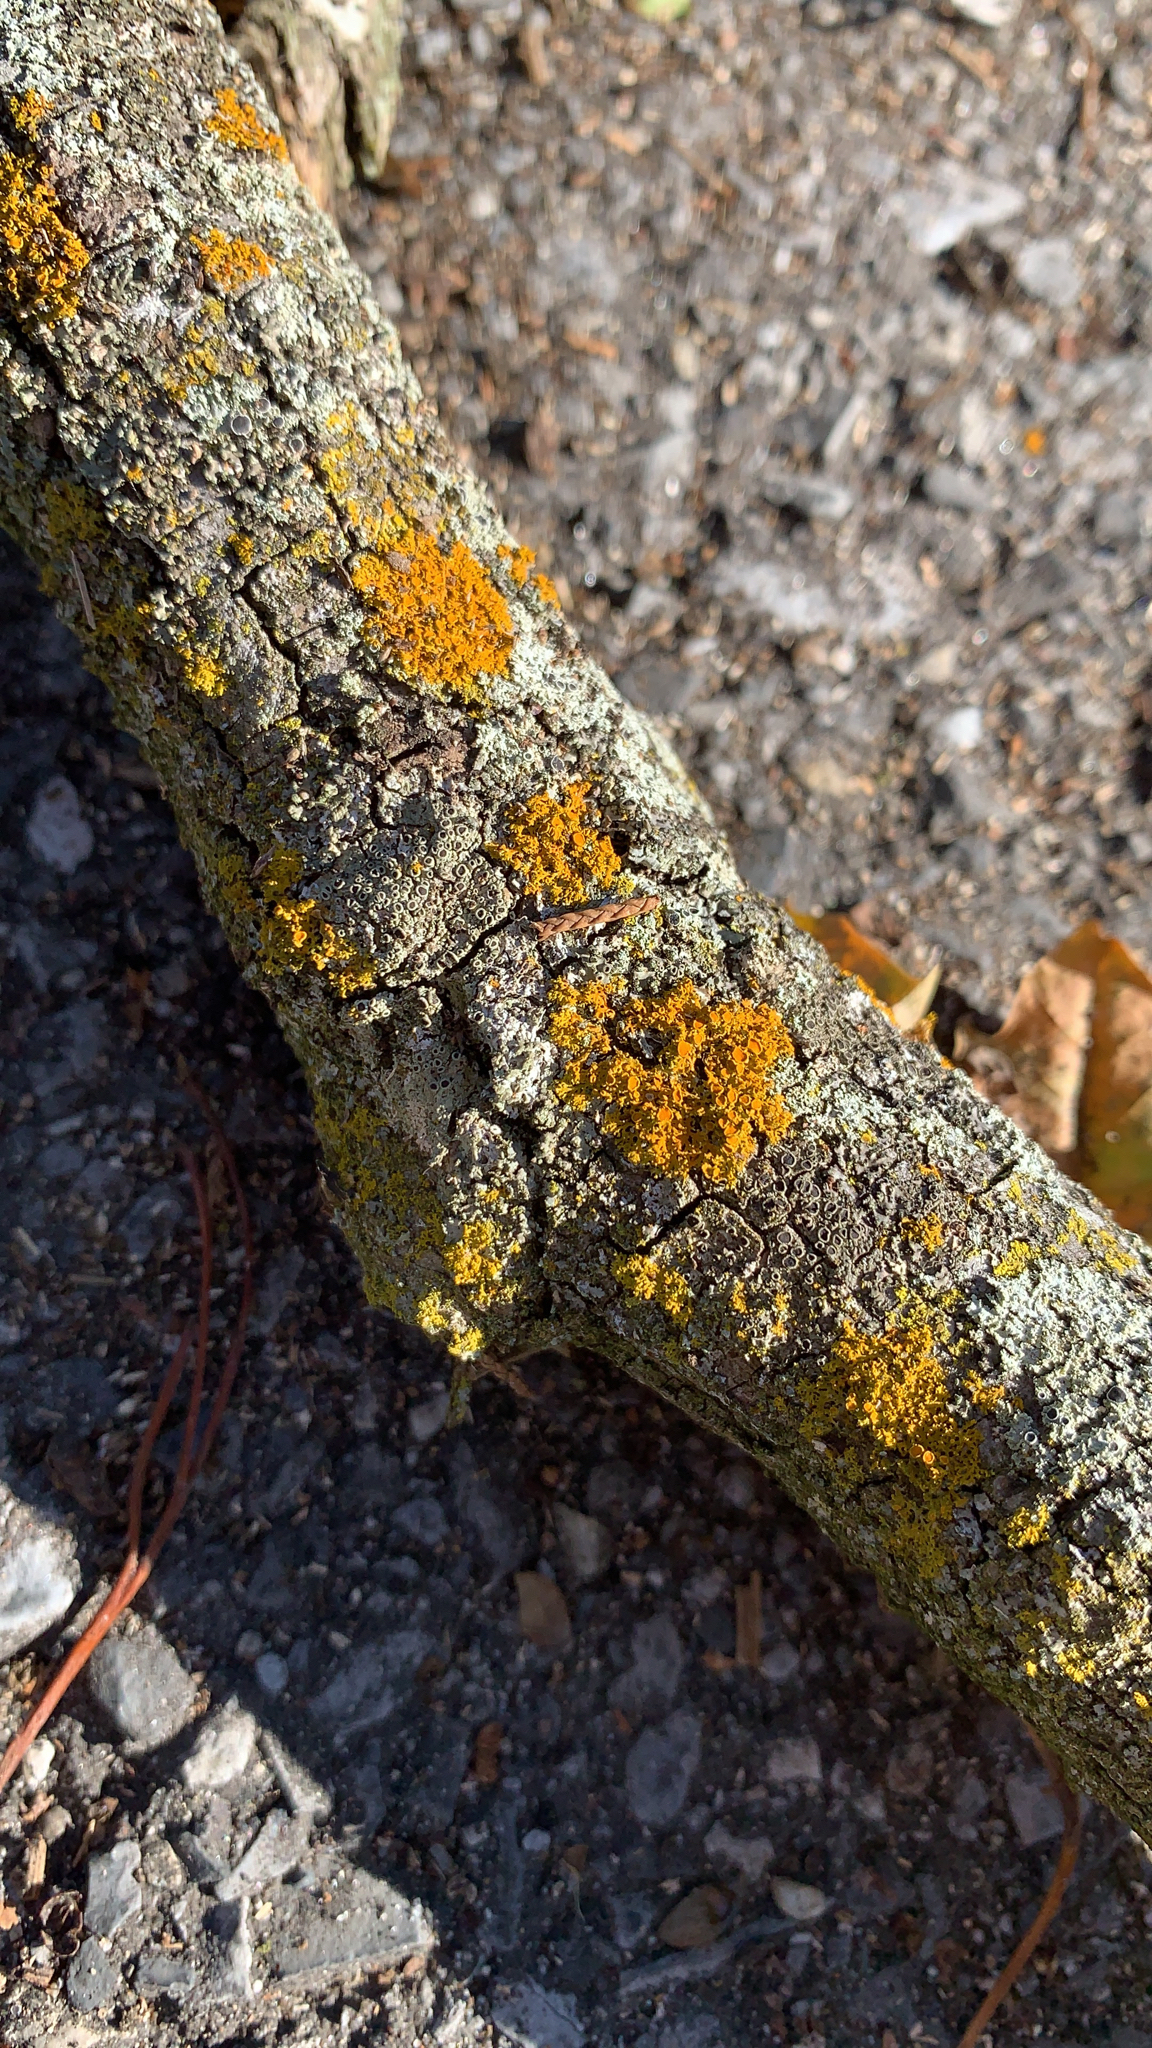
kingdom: Fungi
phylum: Ascomycota
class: Lecanoromycetes
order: Teloschistales
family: Teloschistaceae
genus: Gallowayella
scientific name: Gallowayella weberi
